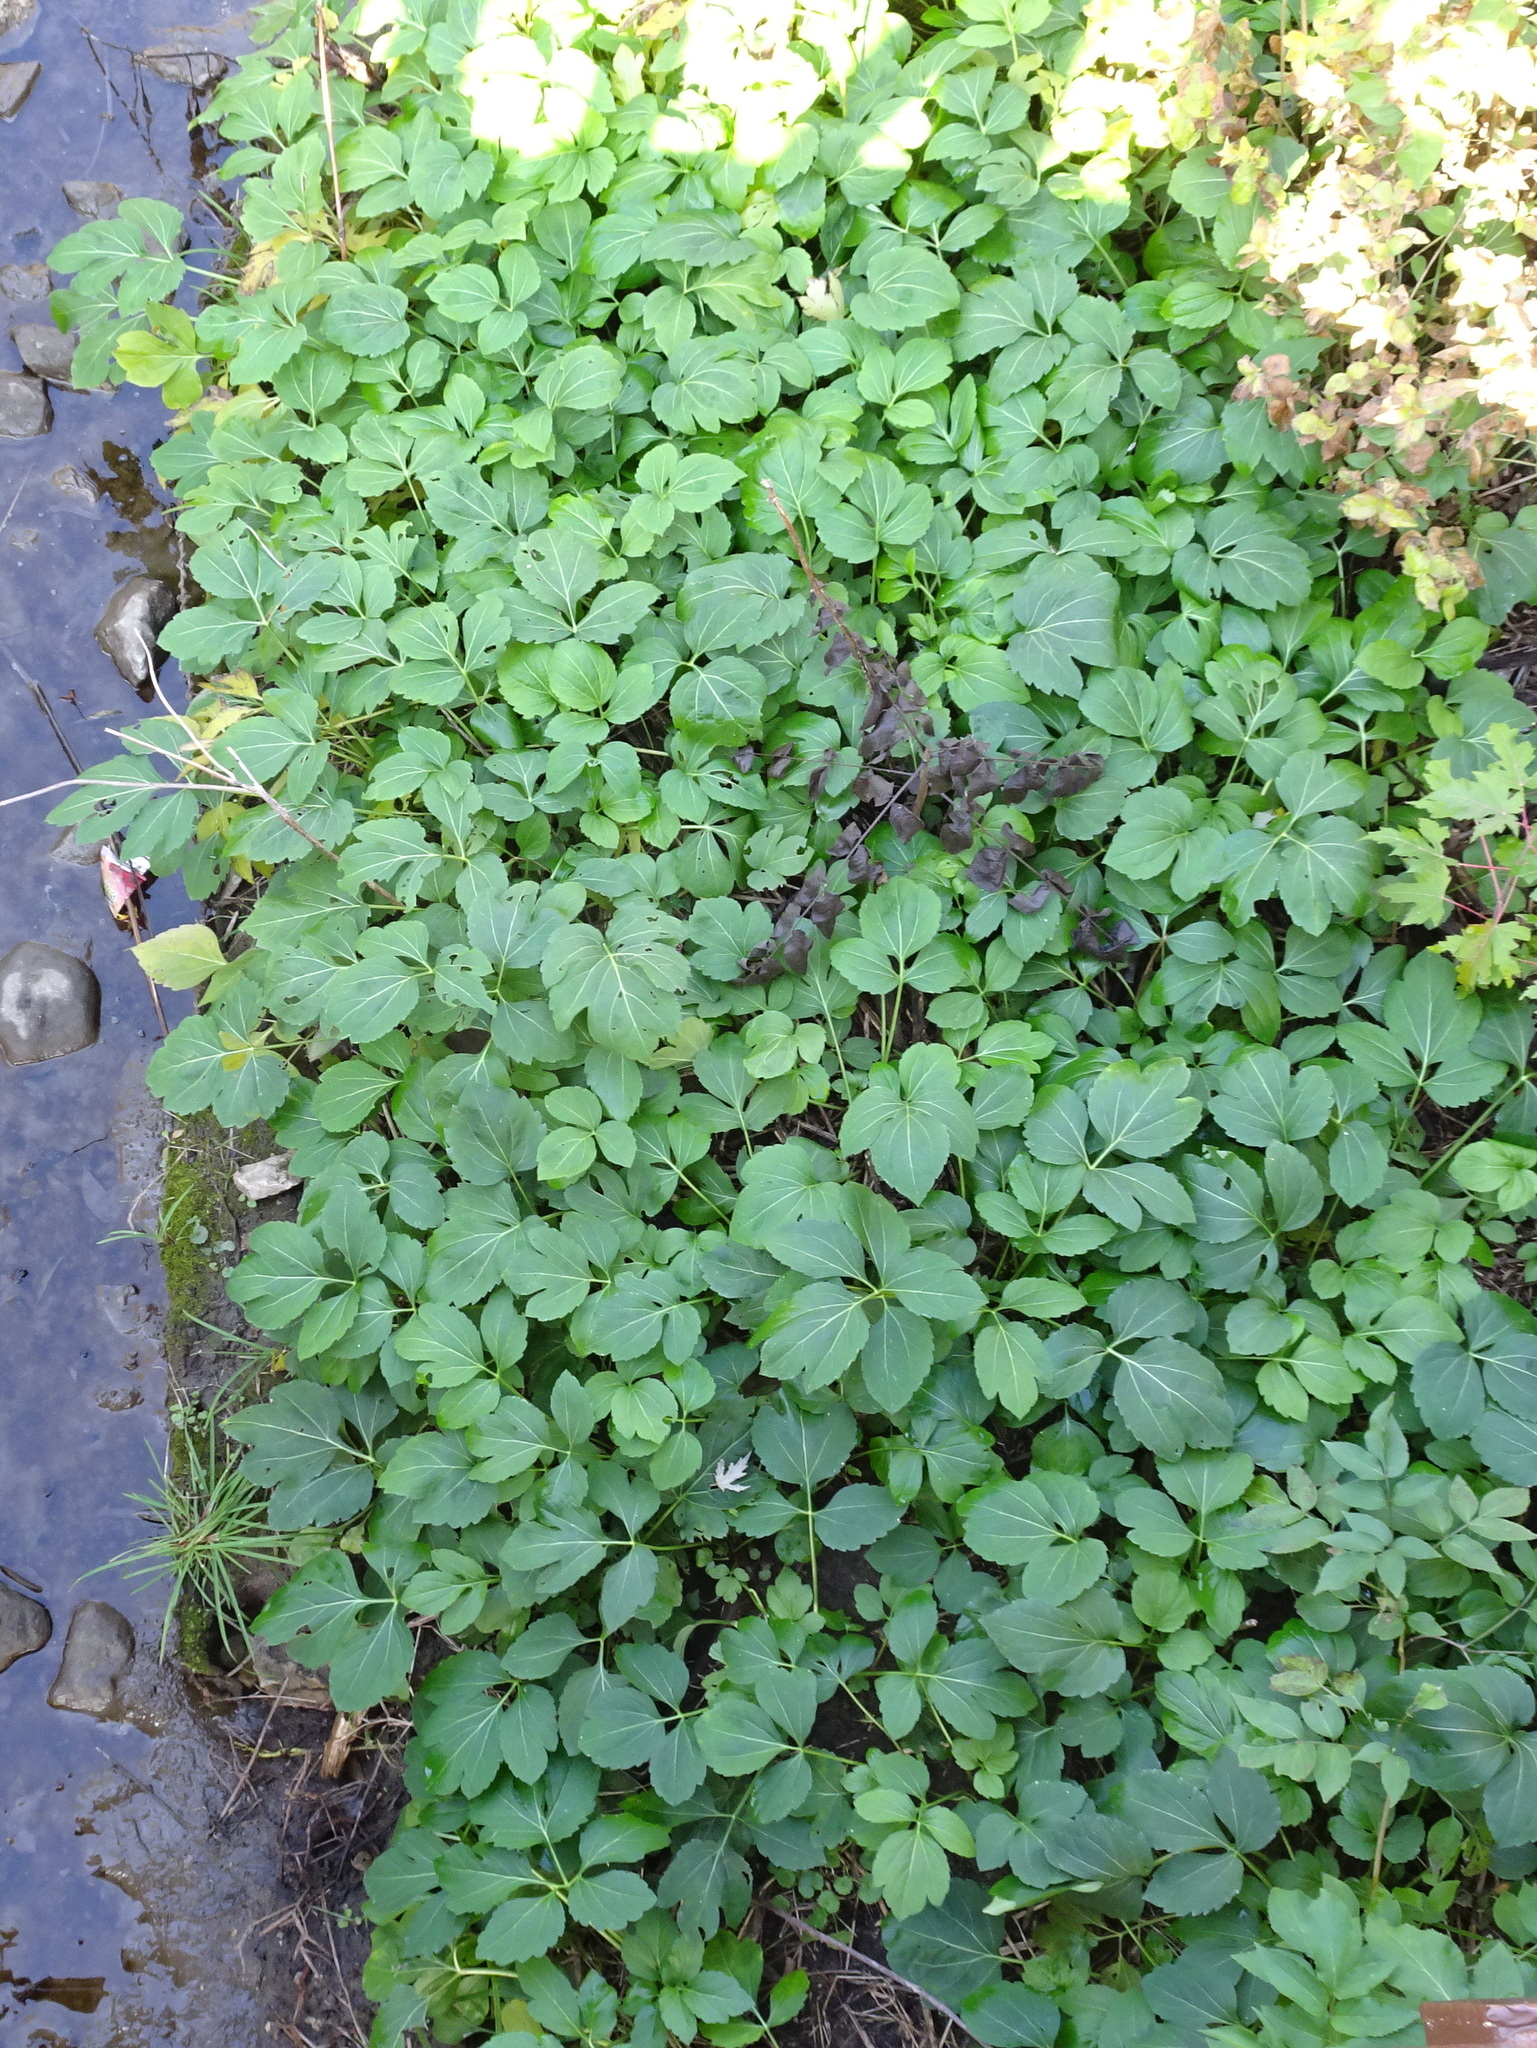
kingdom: Plantae
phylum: Tracheophyta
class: Magnoliopsida
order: Asterales
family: Asteraceae
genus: Rudbeckia
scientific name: Rudbeckia laciniata
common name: Coneflower
